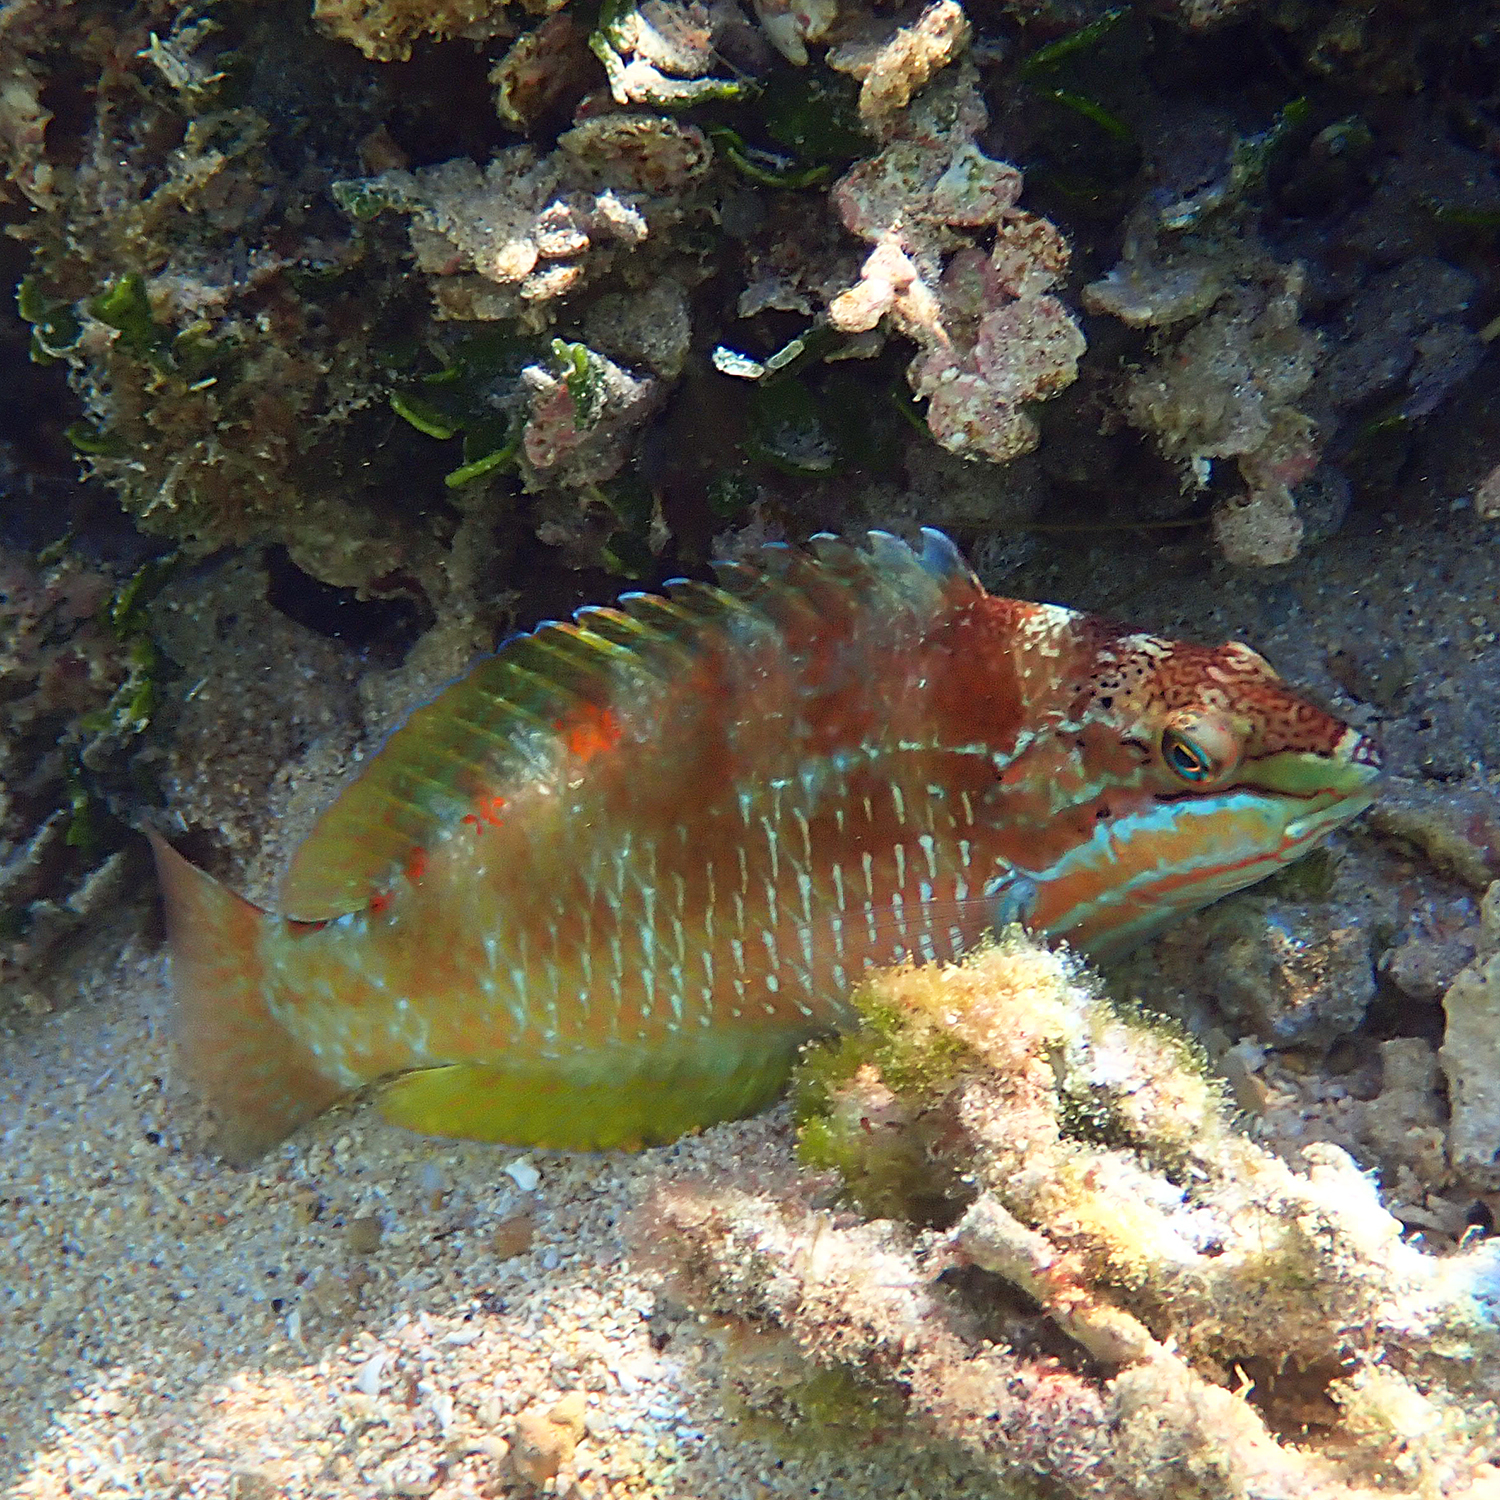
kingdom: Animalia
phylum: Chordata
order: Perciformes
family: Labridae
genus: Pseudolabrus
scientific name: Pseudolabrus luculentus
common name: Luculentus wrasse
